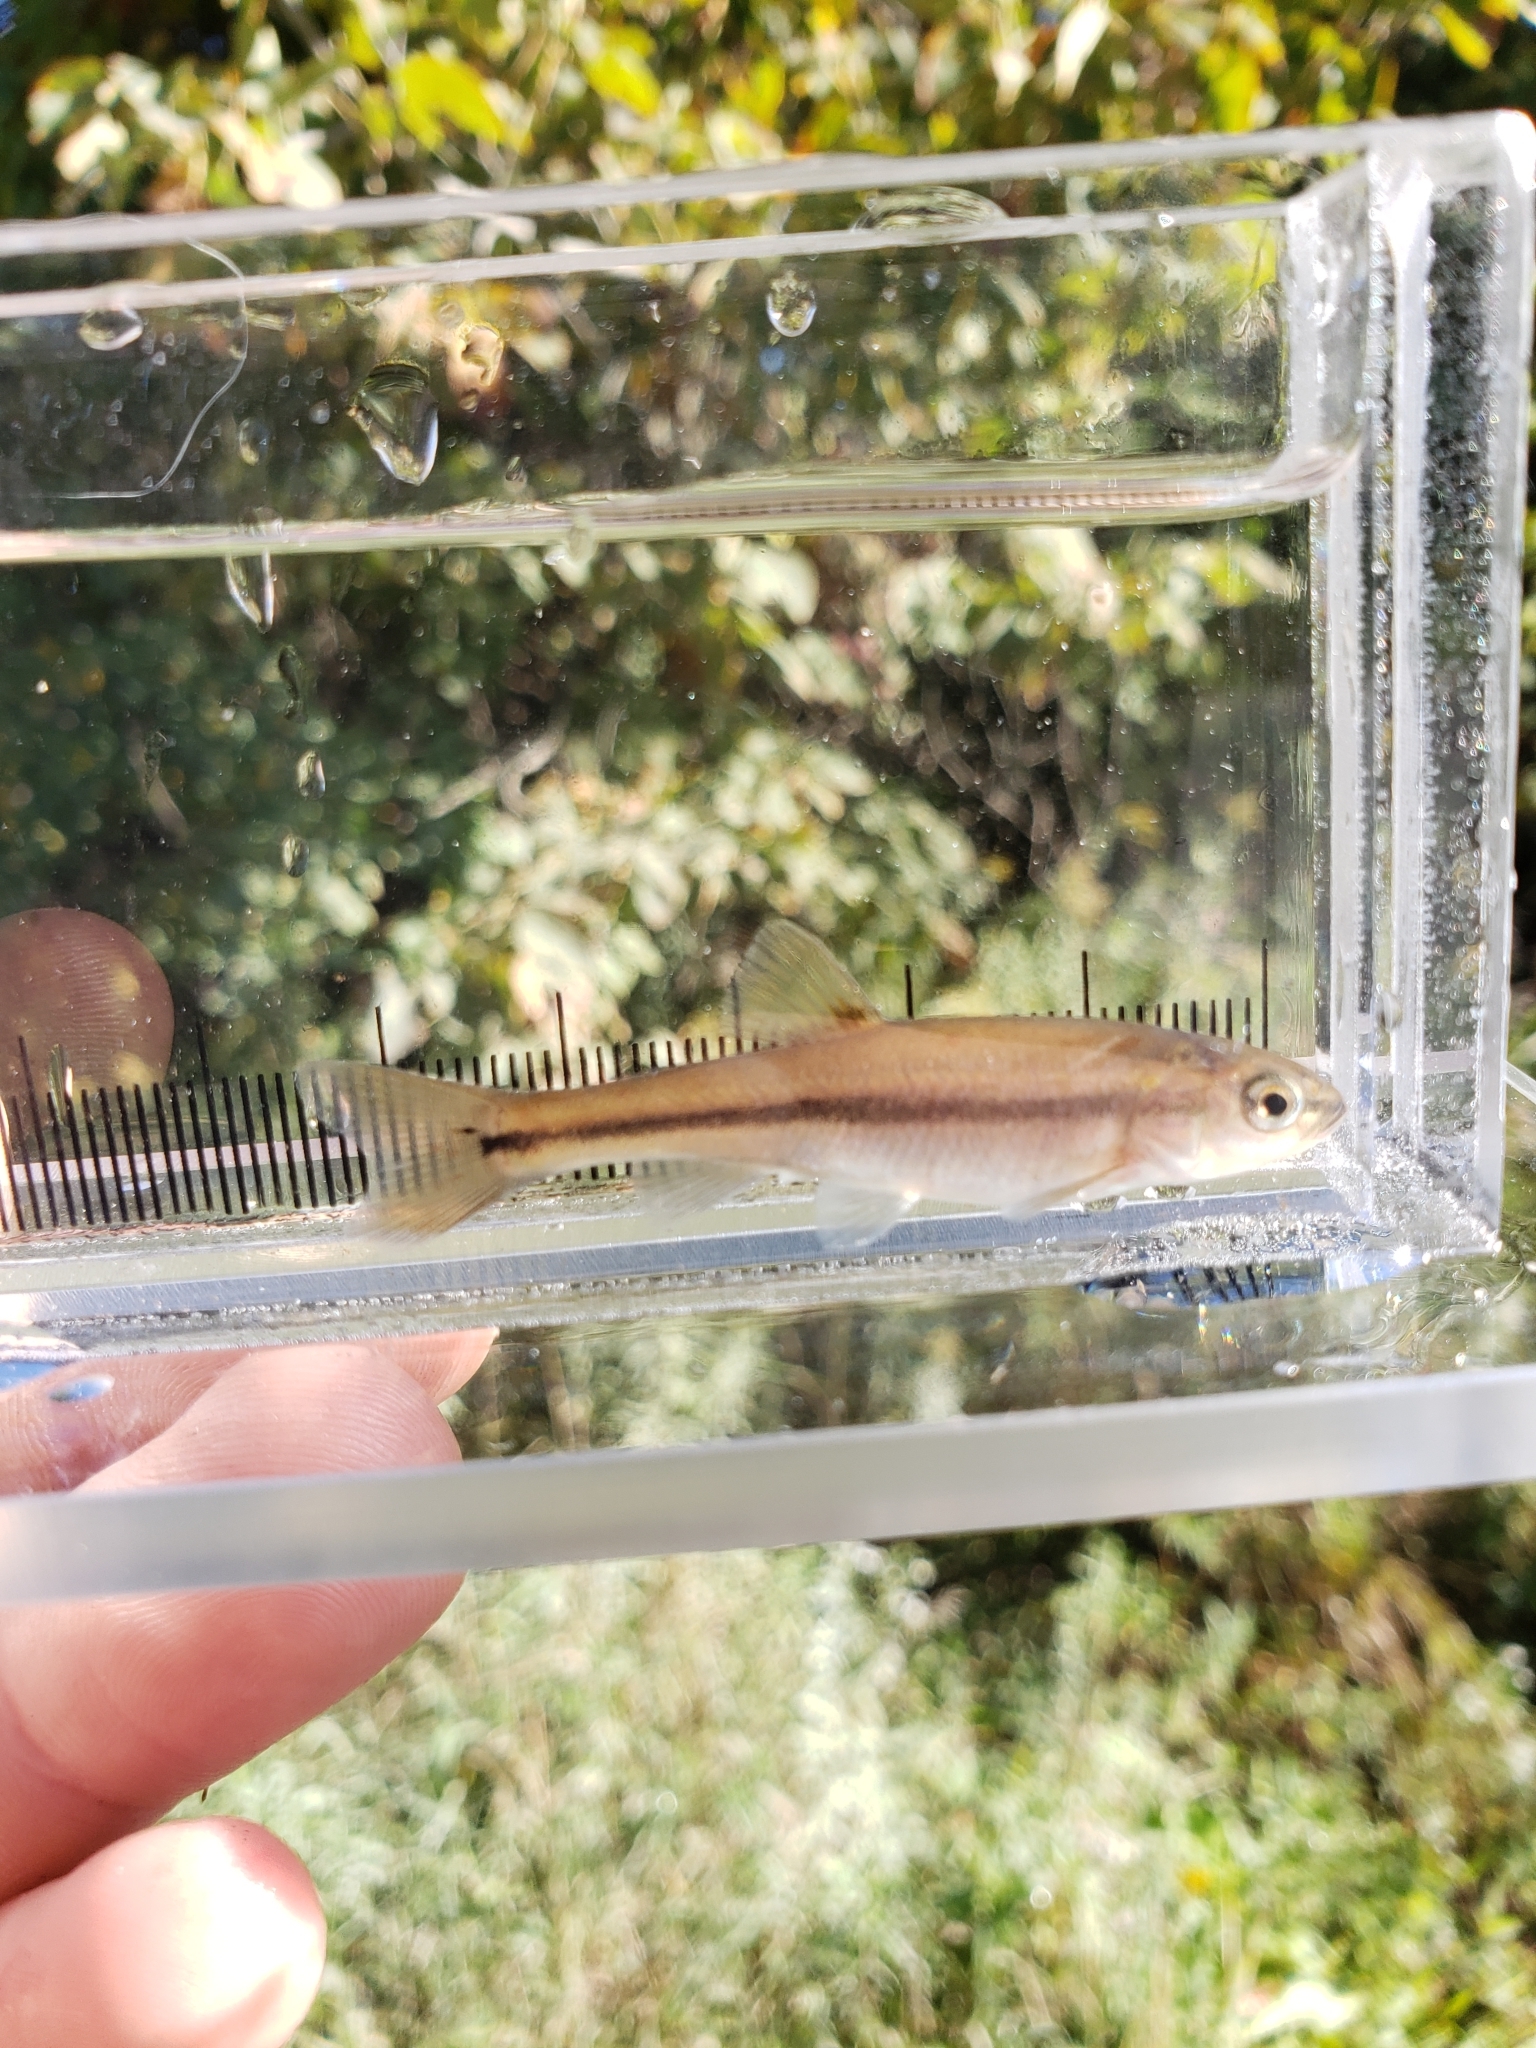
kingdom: Animalia
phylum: Chordata
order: Cypriniformes
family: Cyprinidae
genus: Semotilus
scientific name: Semotilus atromaculatus
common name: Creek chub
